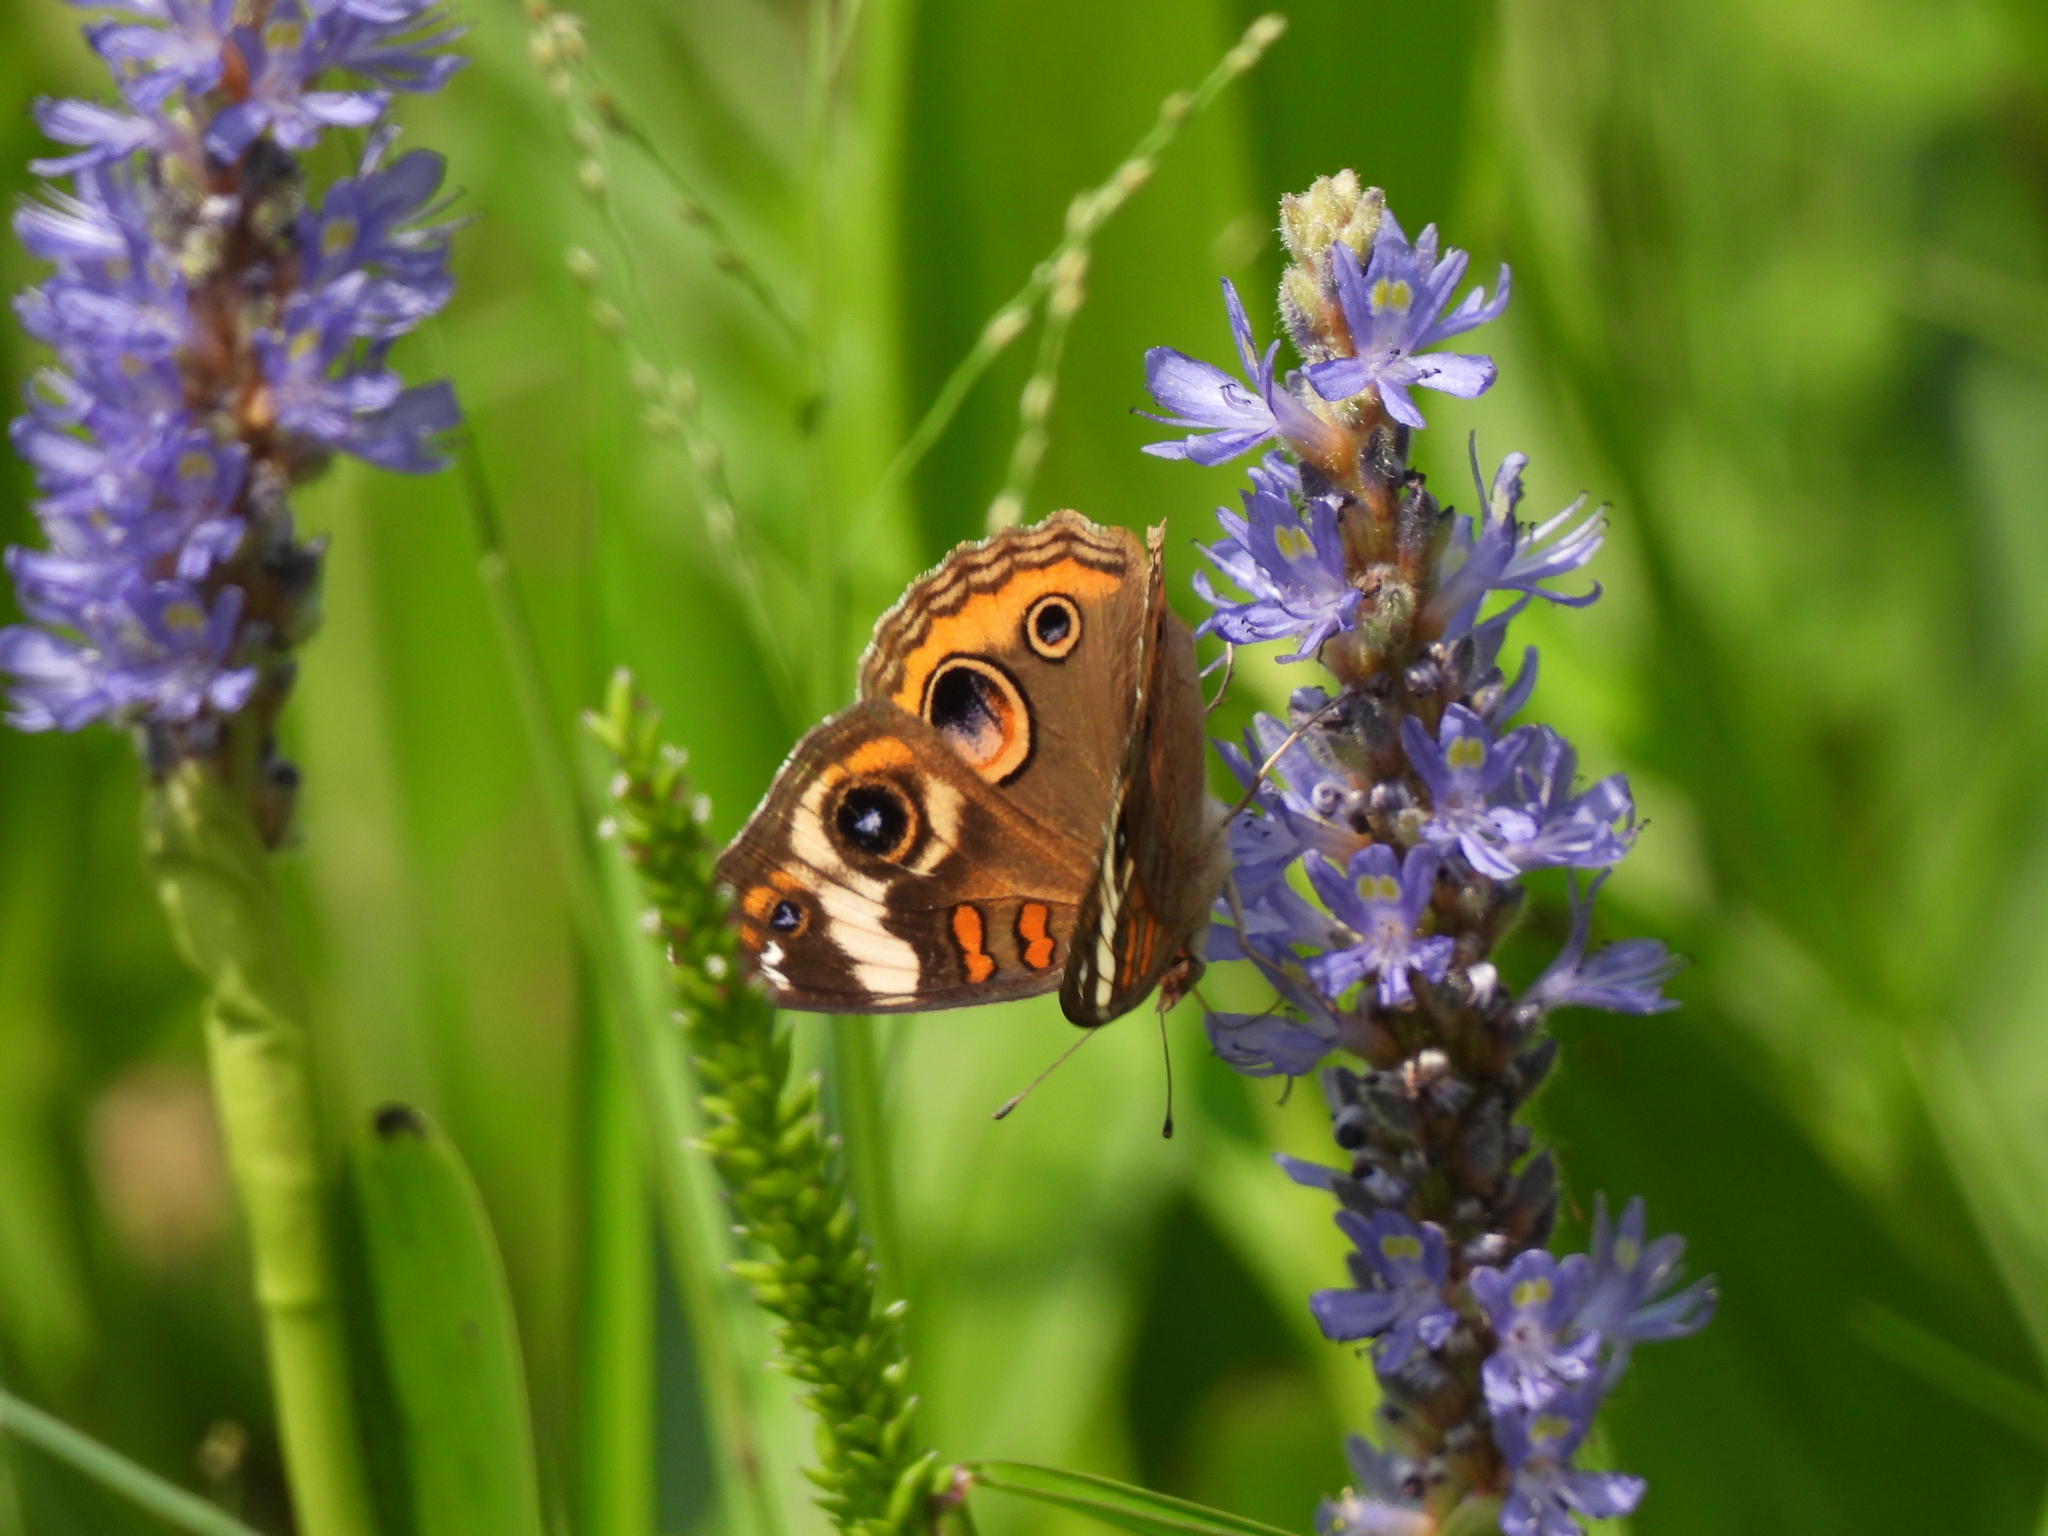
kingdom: Plantae
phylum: Tracheophyta
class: Liliopsida
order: Commelinales
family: Pontederiaceae
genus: Pontederia
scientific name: Pontederia cordata
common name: Pickerelweed
